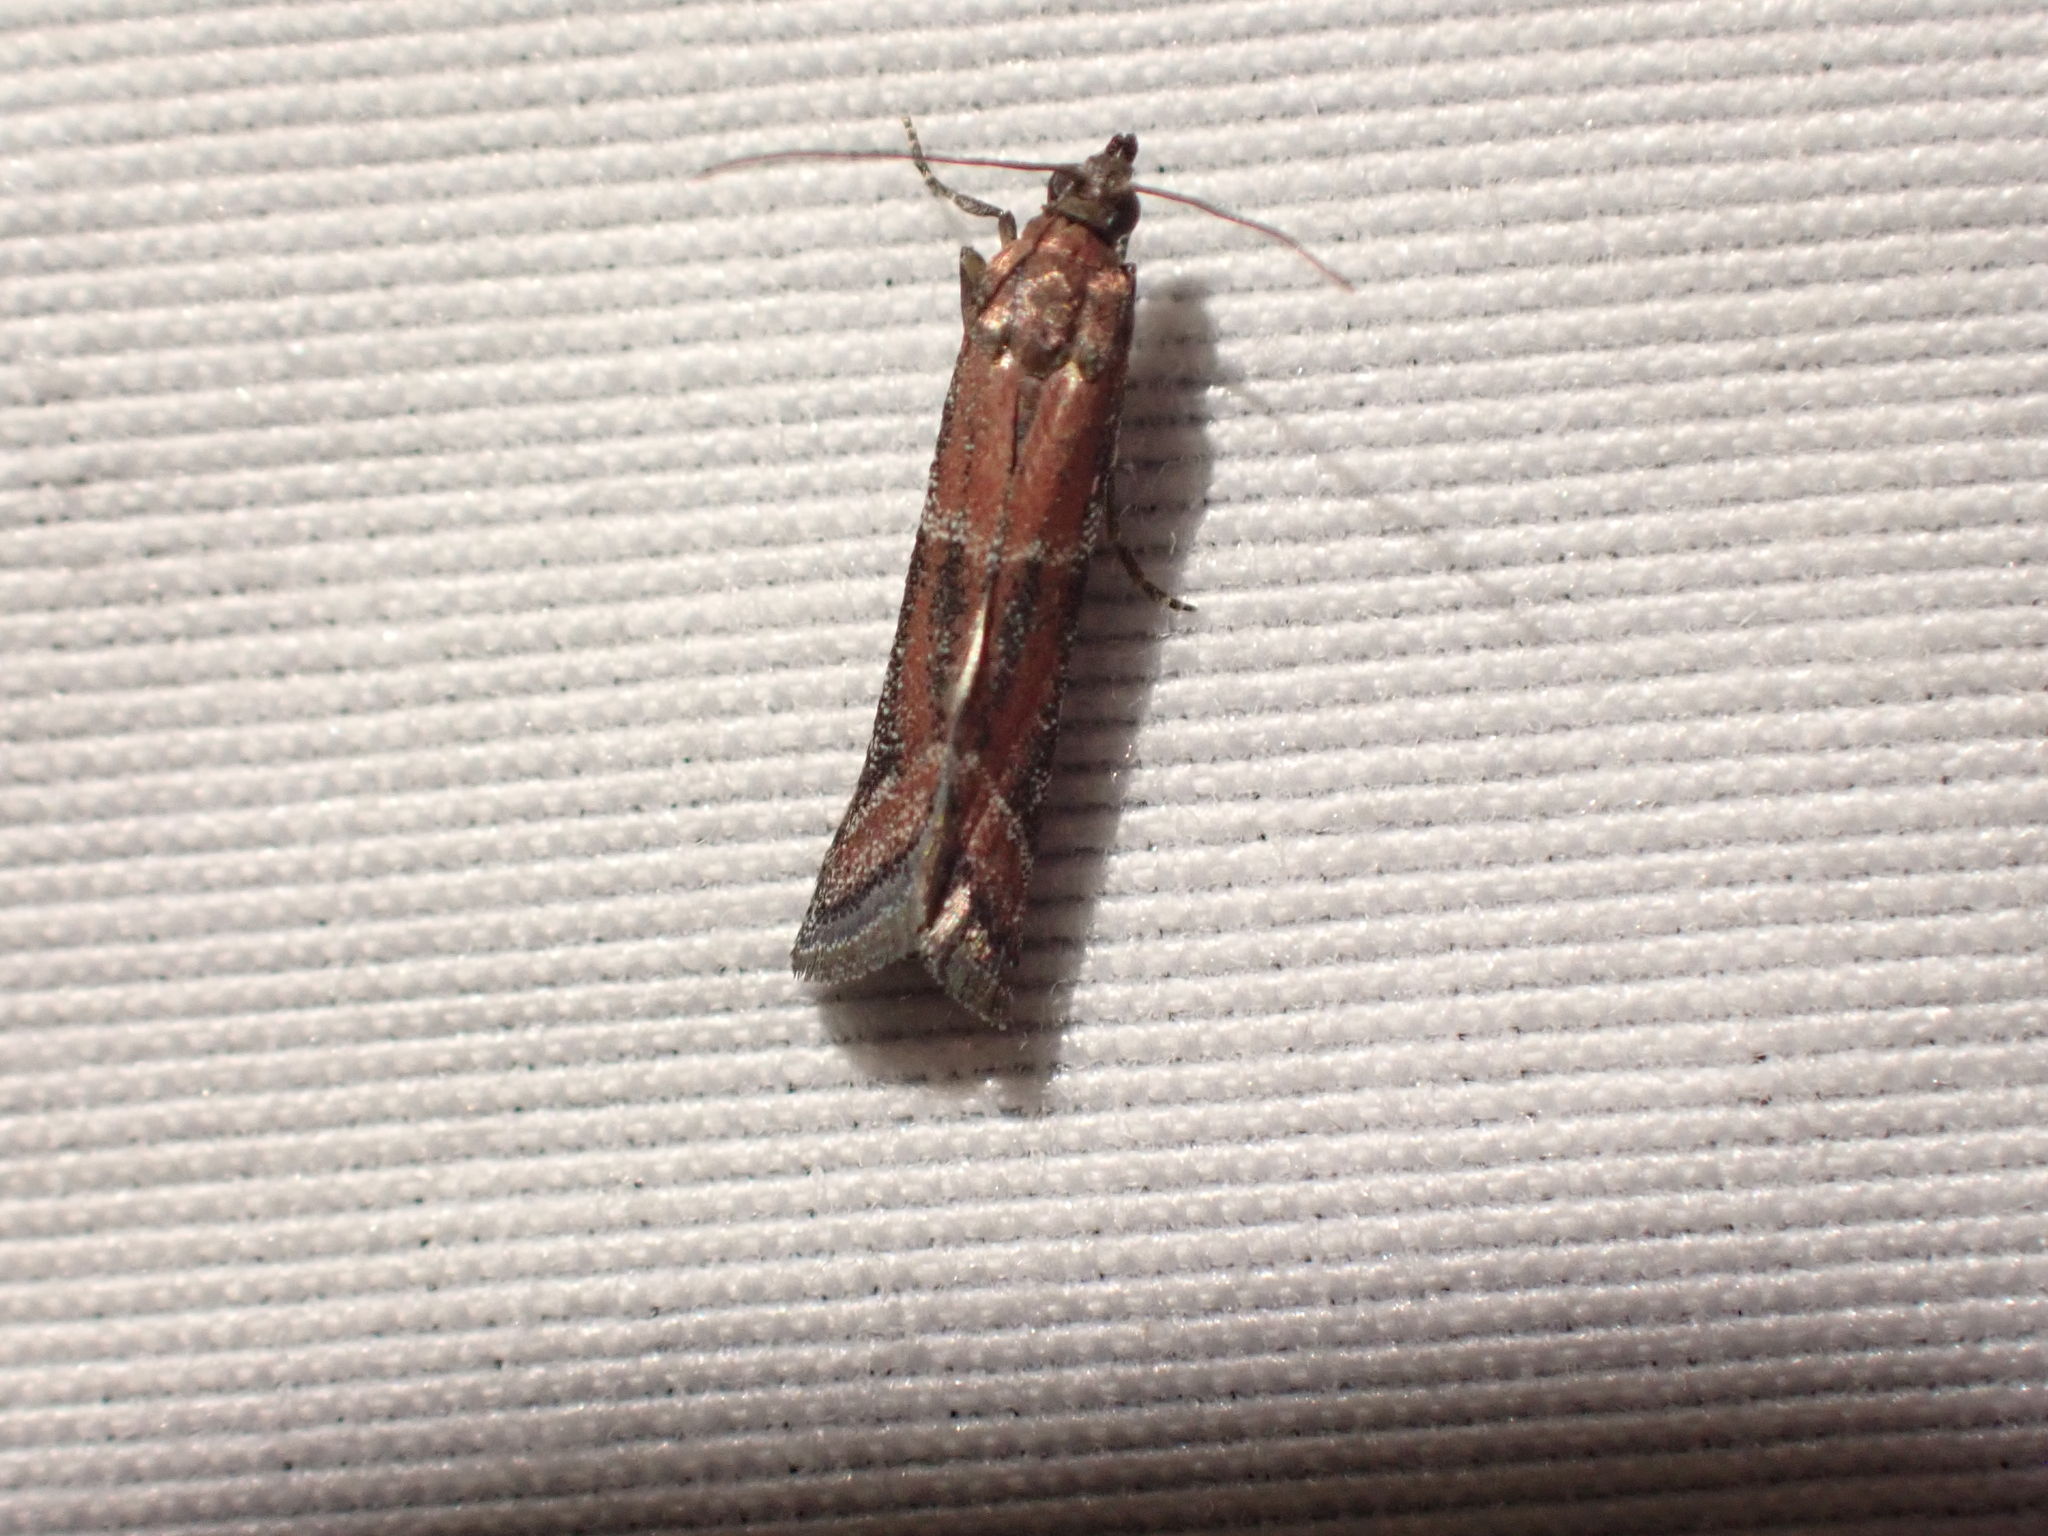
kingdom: Animalia
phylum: Arthropoda
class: Insecta
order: Lepidoptera
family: Pyralidae
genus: Ephestiodes
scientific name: Ephestiodes erythrella
